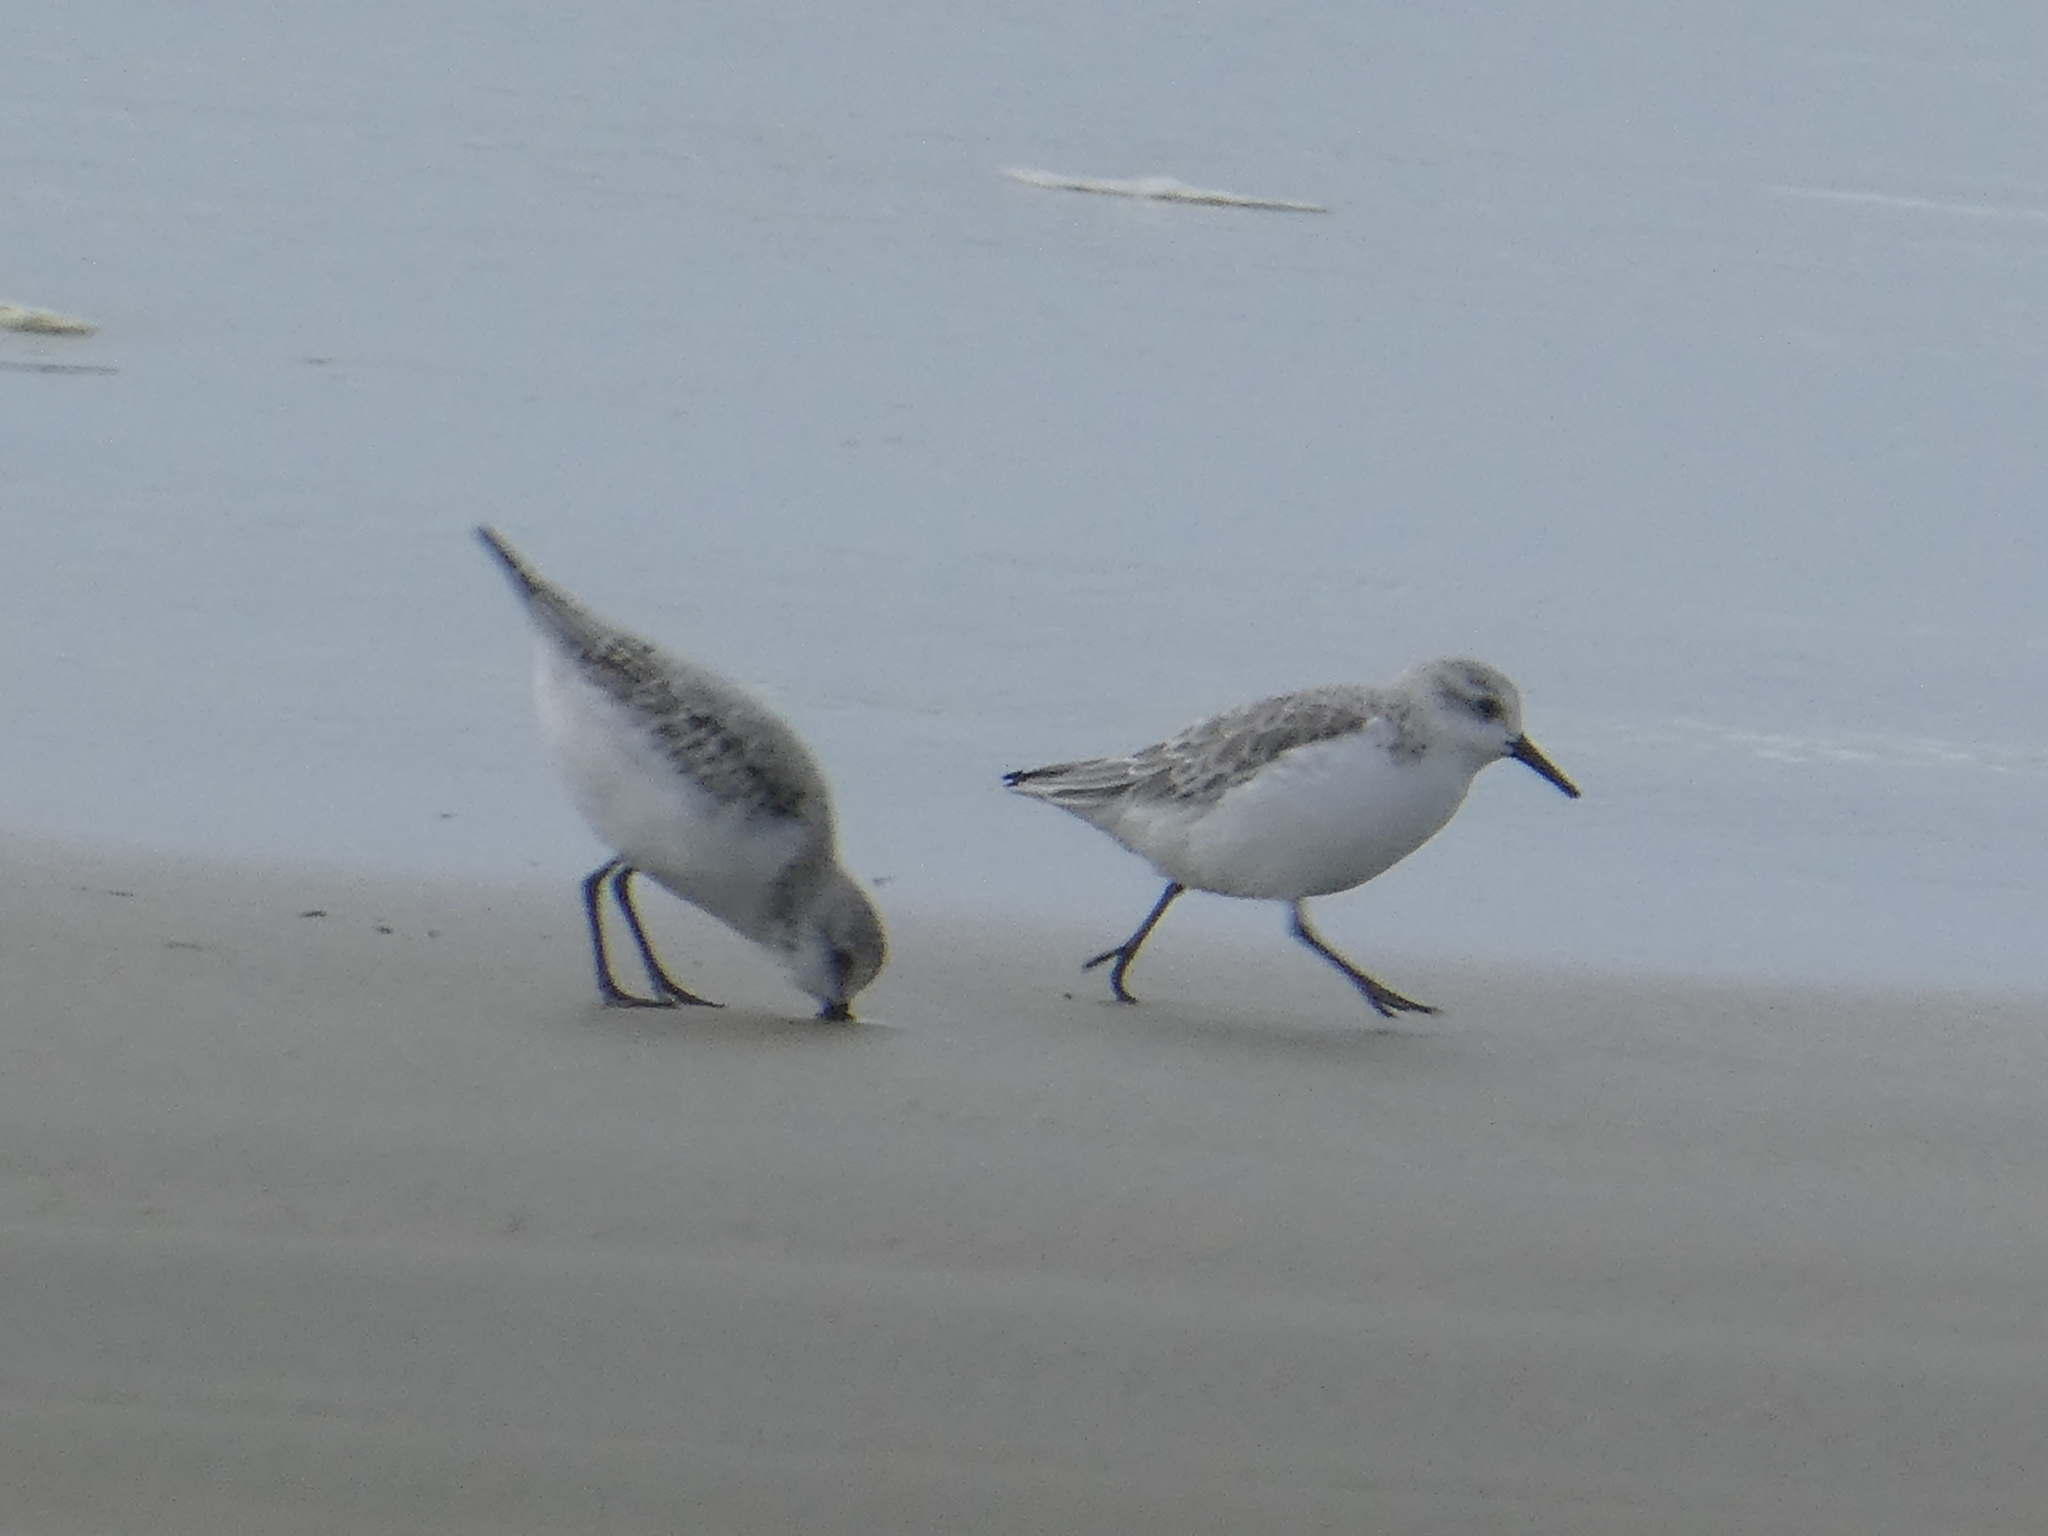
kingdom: Animalia
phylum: Chordata
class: Aves
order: Charadriiformes
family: Scolopacidae
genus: Calidris
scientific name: Calidris alba
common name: Sanderling
